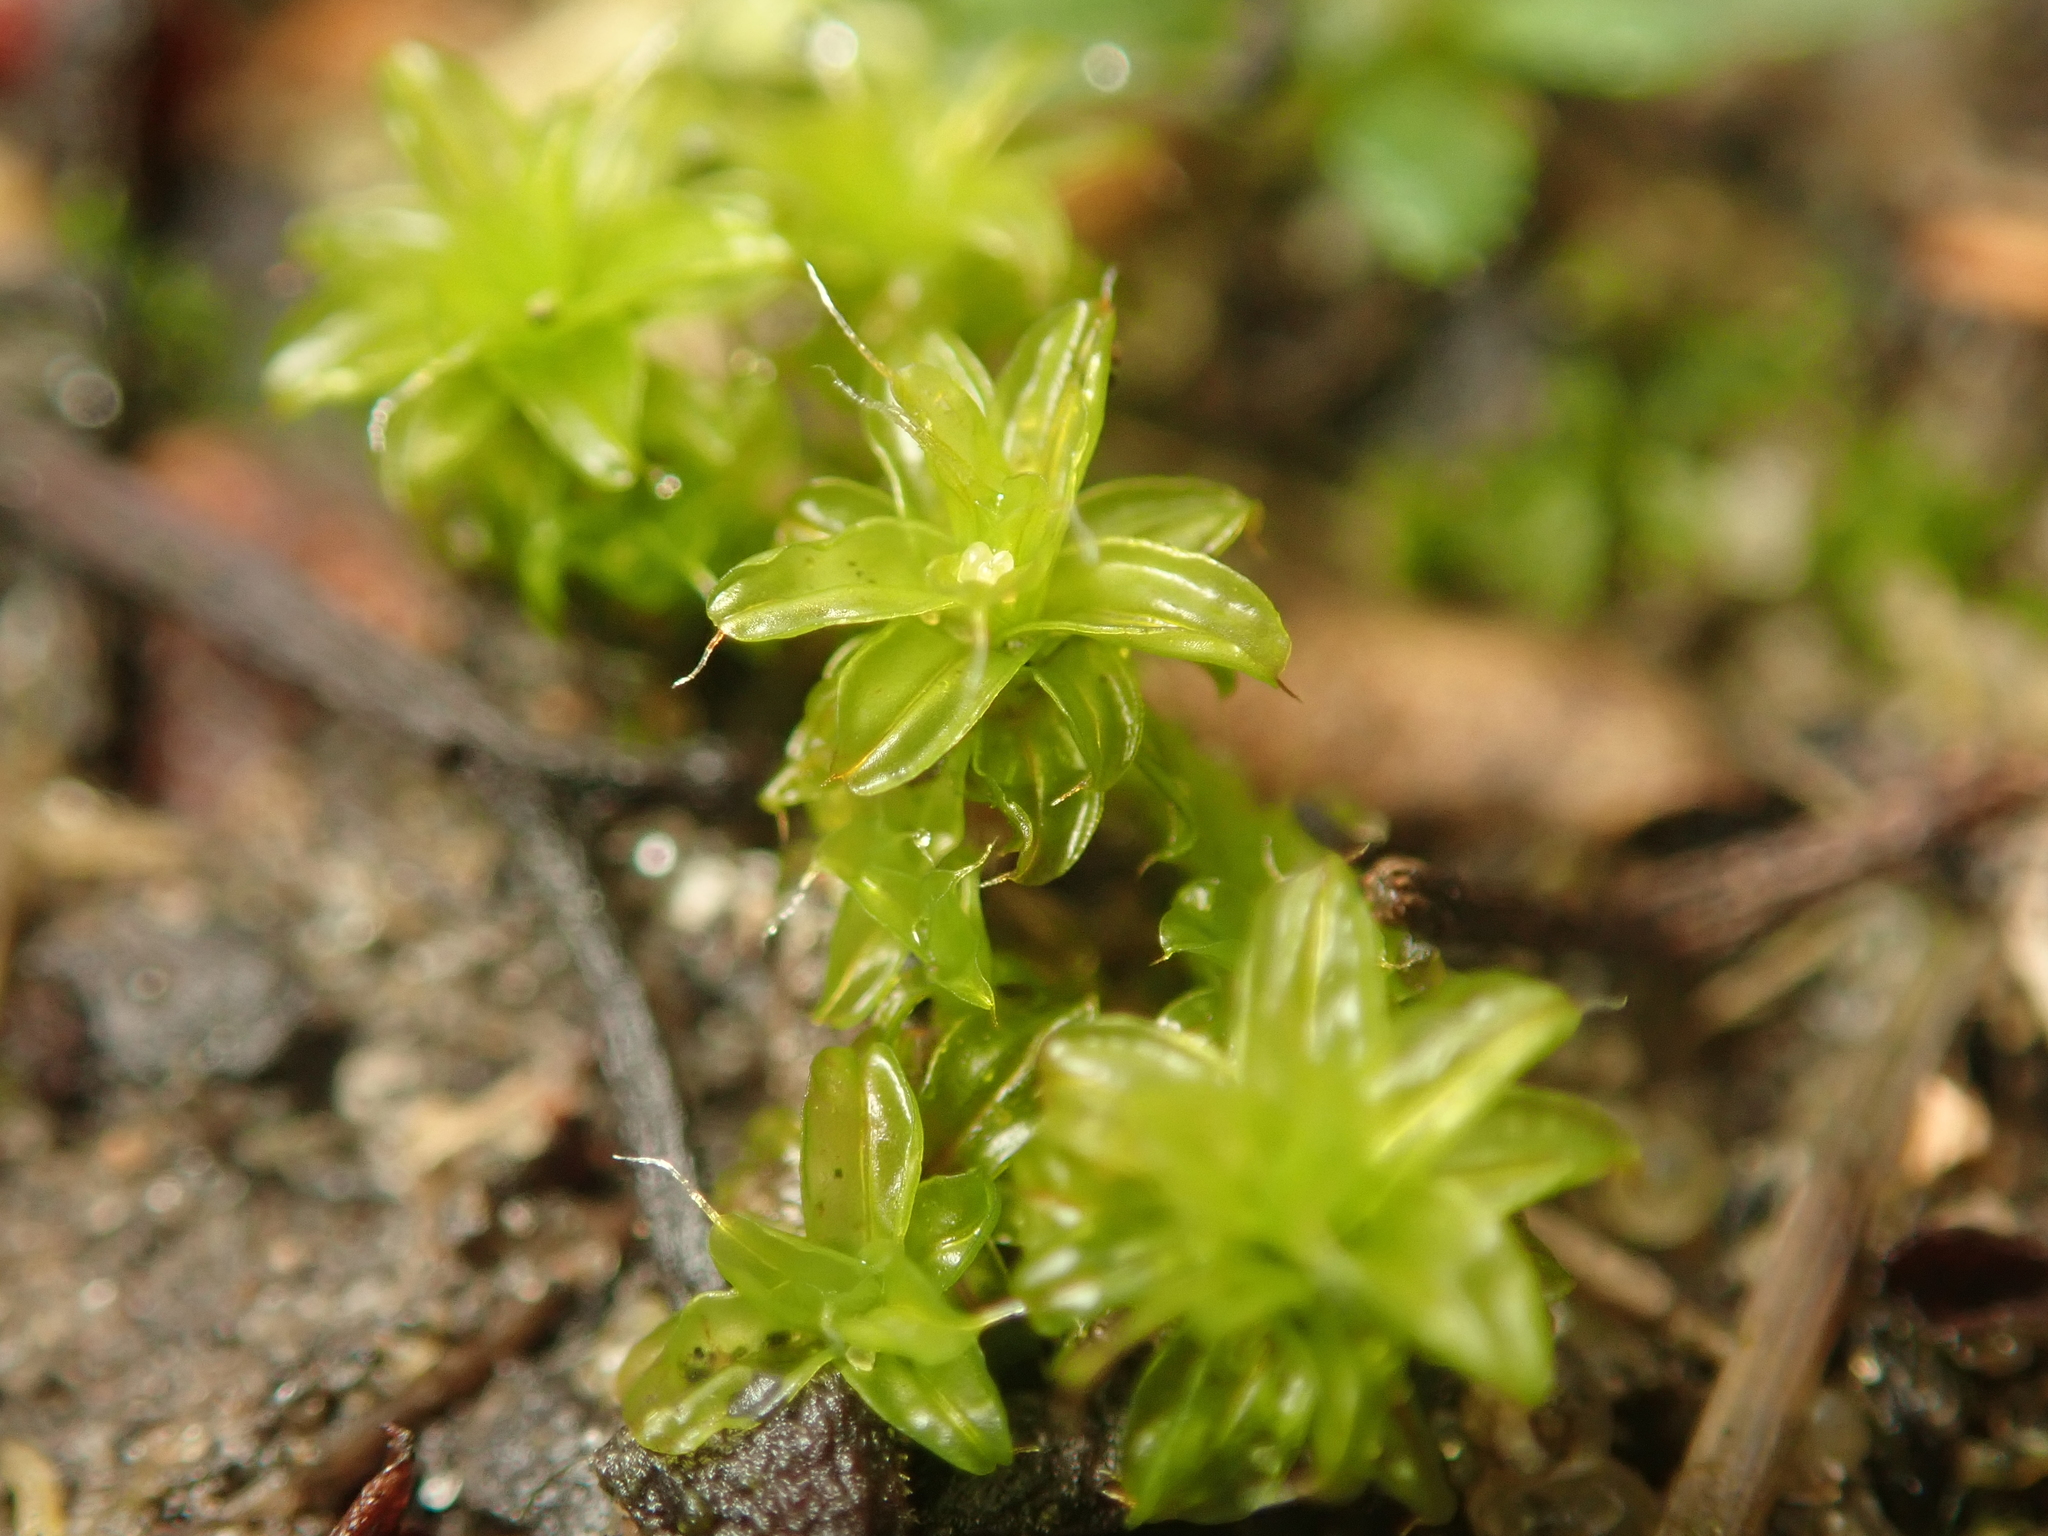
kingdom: Plantae
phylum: Bryophyta
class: Bryopsida
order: Pottiales
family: Pottiaceae
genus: Syntrichia
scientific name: Syntrichia ruralis
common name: Sidewalk screw moss
